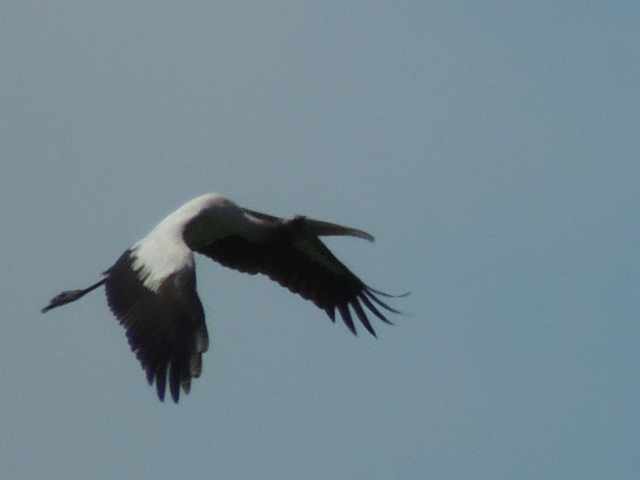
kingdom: Animalia
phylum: Chordata
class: Aves
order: Ciconiiformes
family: Ciconiidae
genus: Mycteria
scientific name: Mycteria americana
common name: Wood stork
